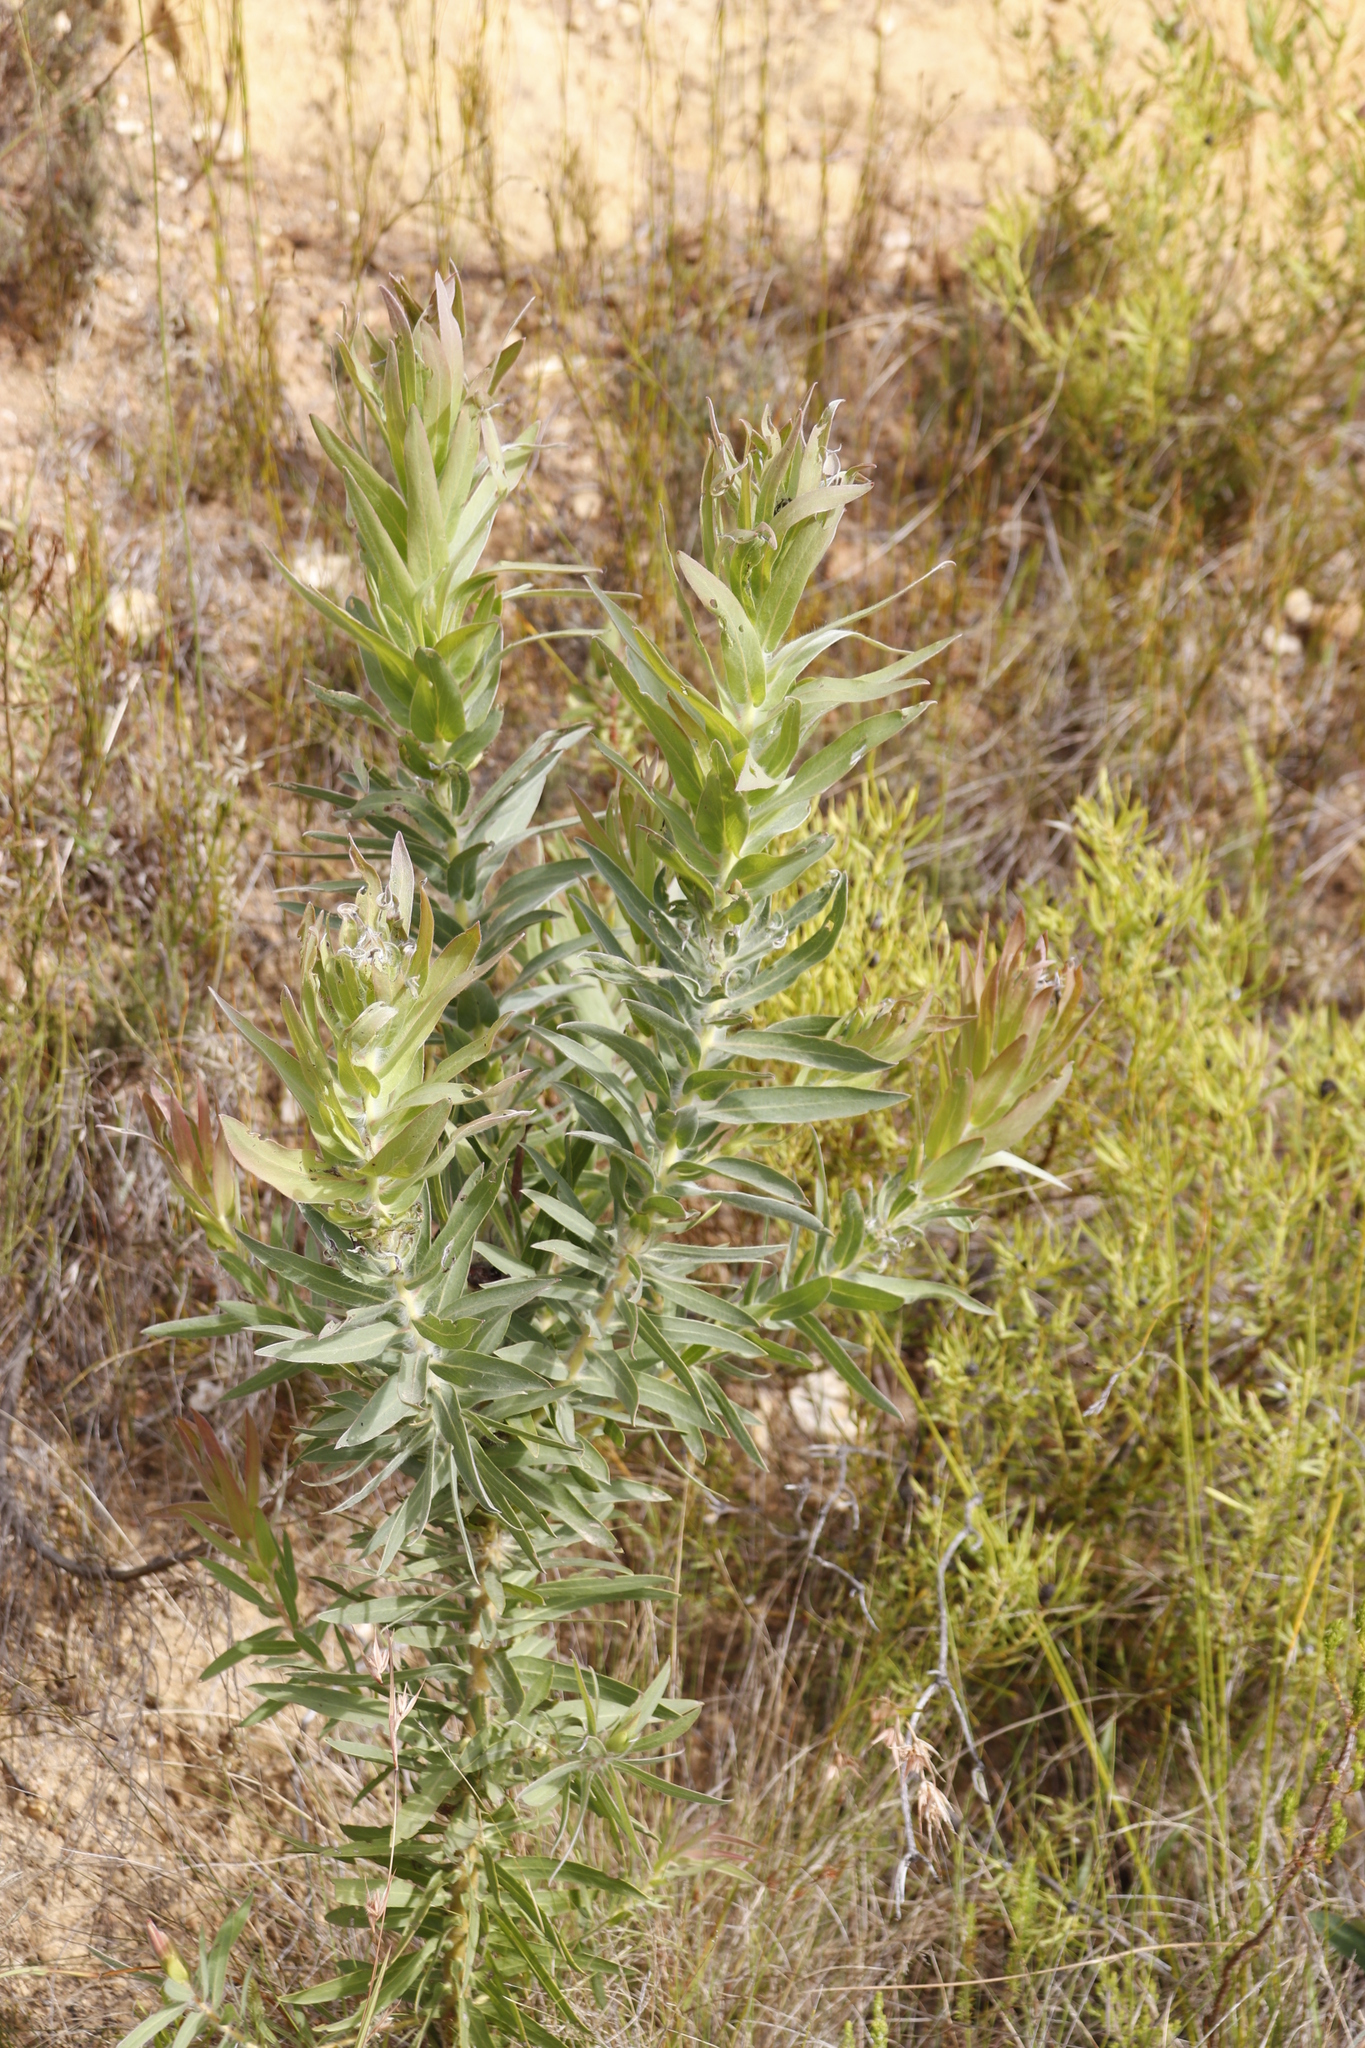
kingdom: Plantae
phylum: Tracheophyta
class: Magnoliopsida
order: Proteales
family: Proteaceae
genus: Protea
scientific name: Protea coronata
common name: Green sugarbush
